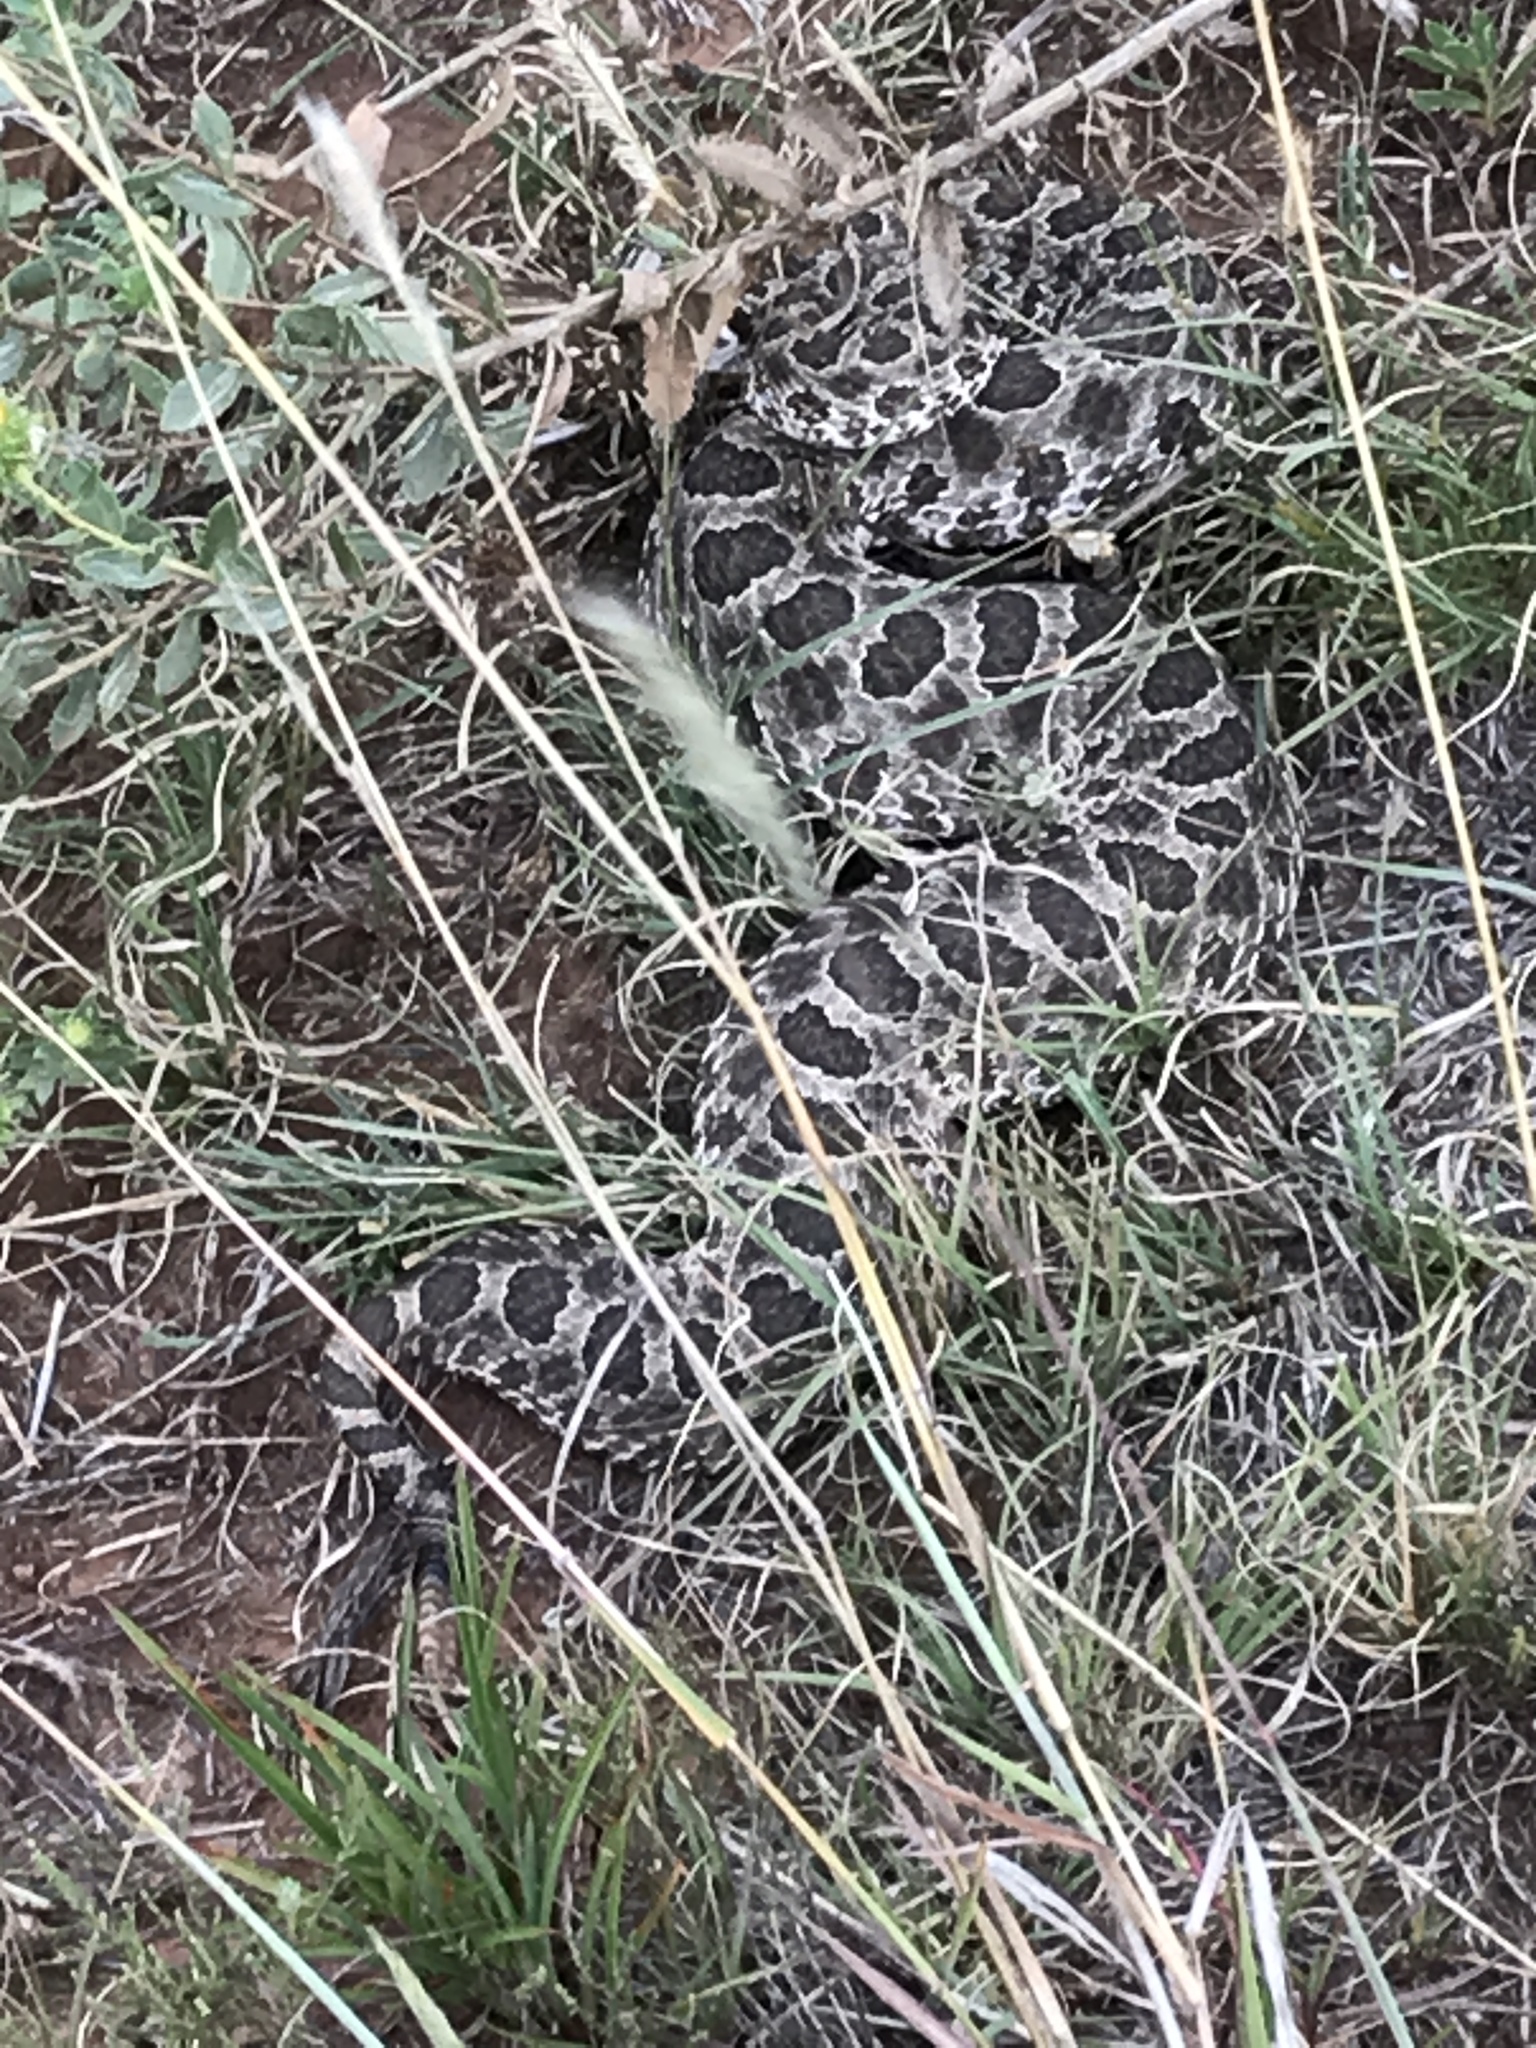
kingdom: Animalia
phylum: Chordata
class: Squamata
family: Viperidae
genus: Sistrurus
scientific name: Sistrurus tergeminus
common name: Desert massasauga [edwardsi]
